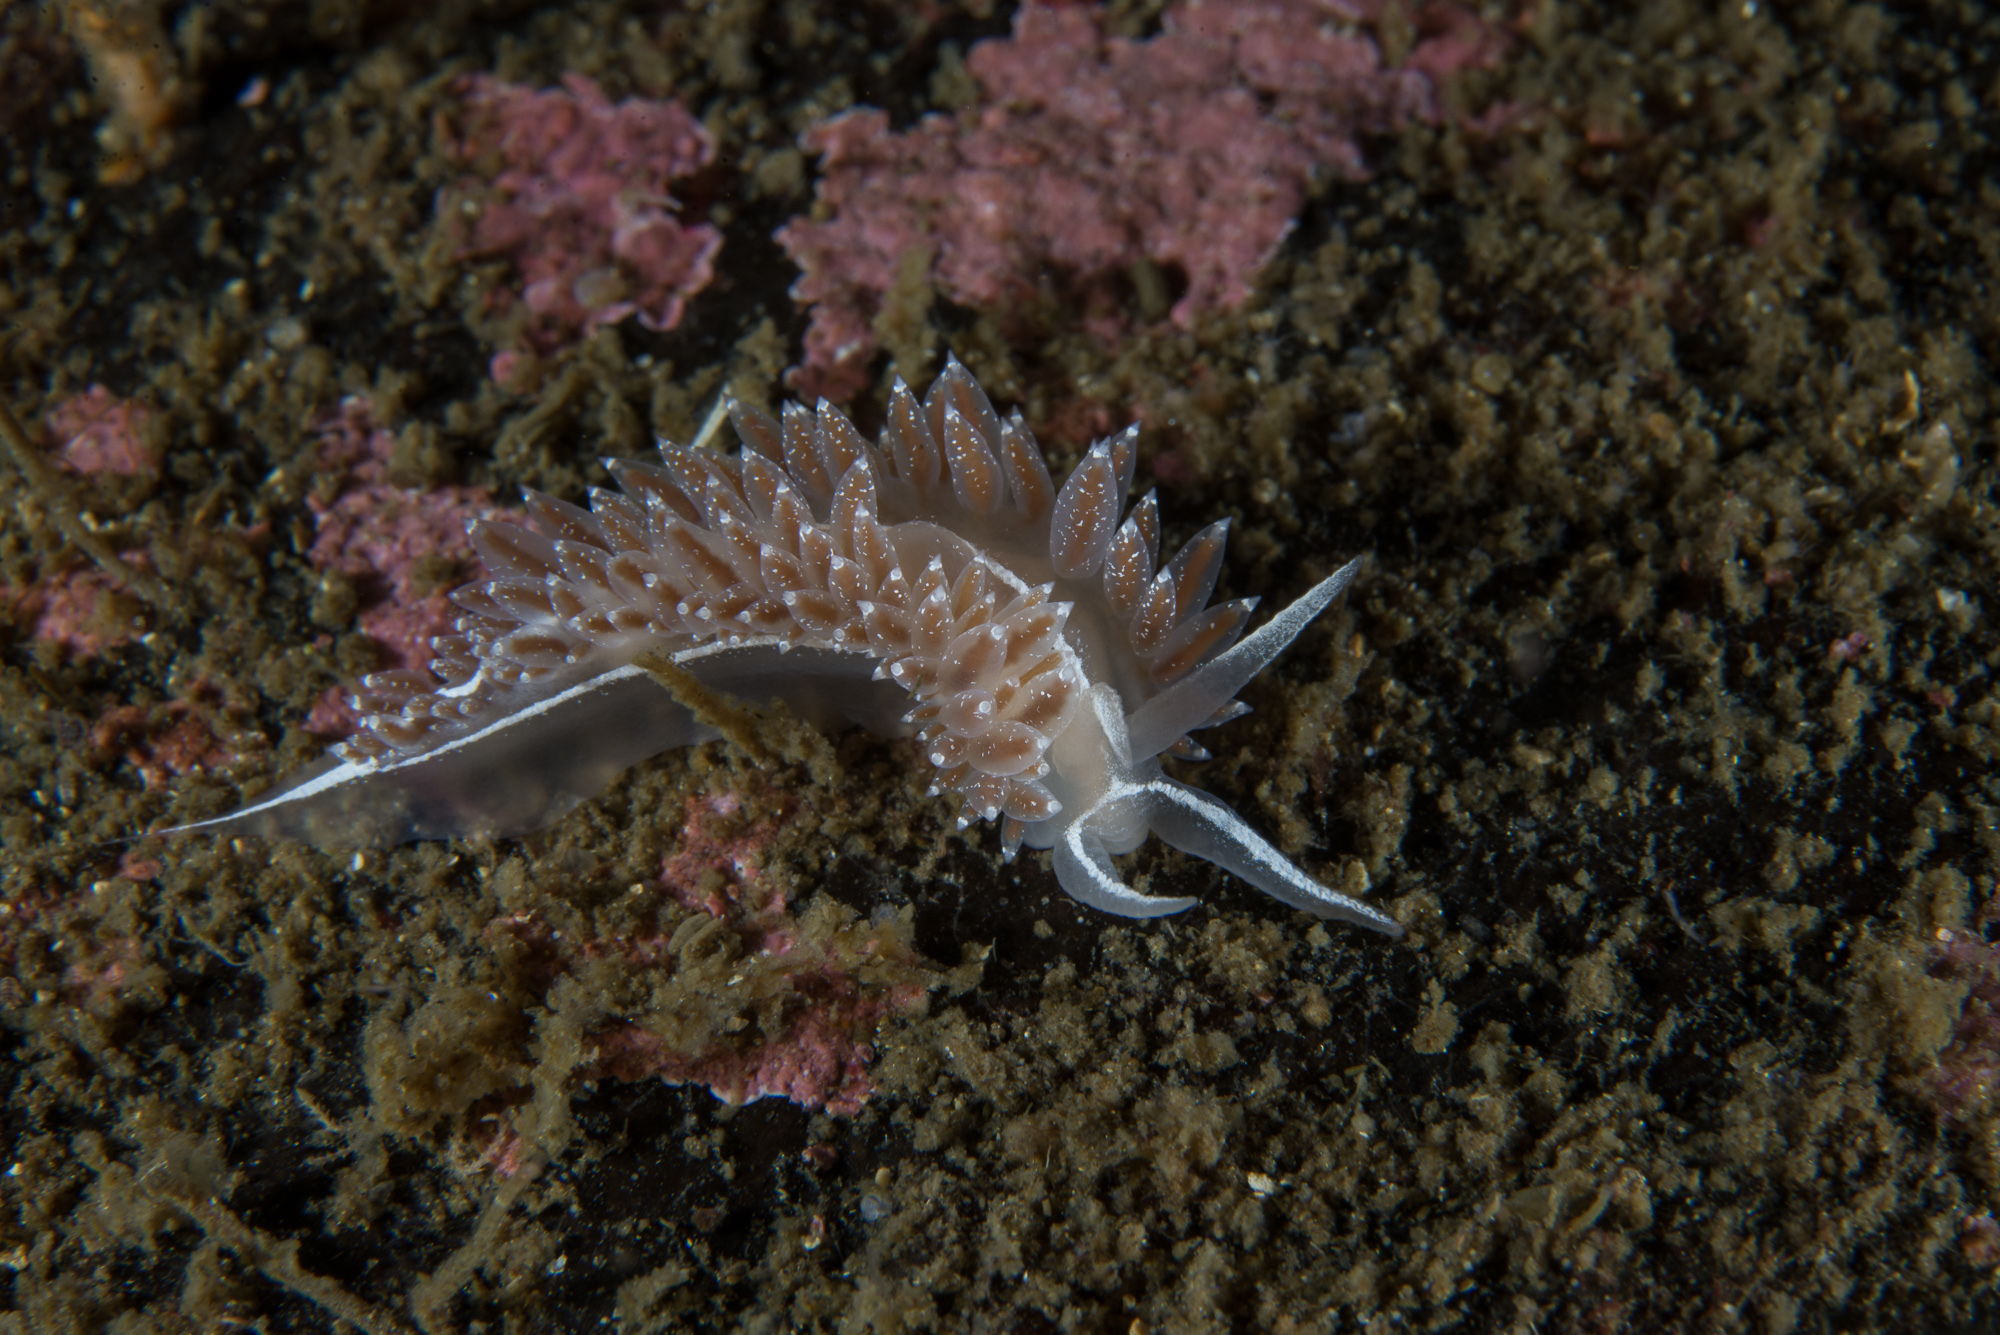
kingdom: Animalia
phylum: Mollusca
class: Gastropoda
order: Nudibranchia
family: Coryphellidae
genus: Coryphella
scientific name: Coryphella monicae
